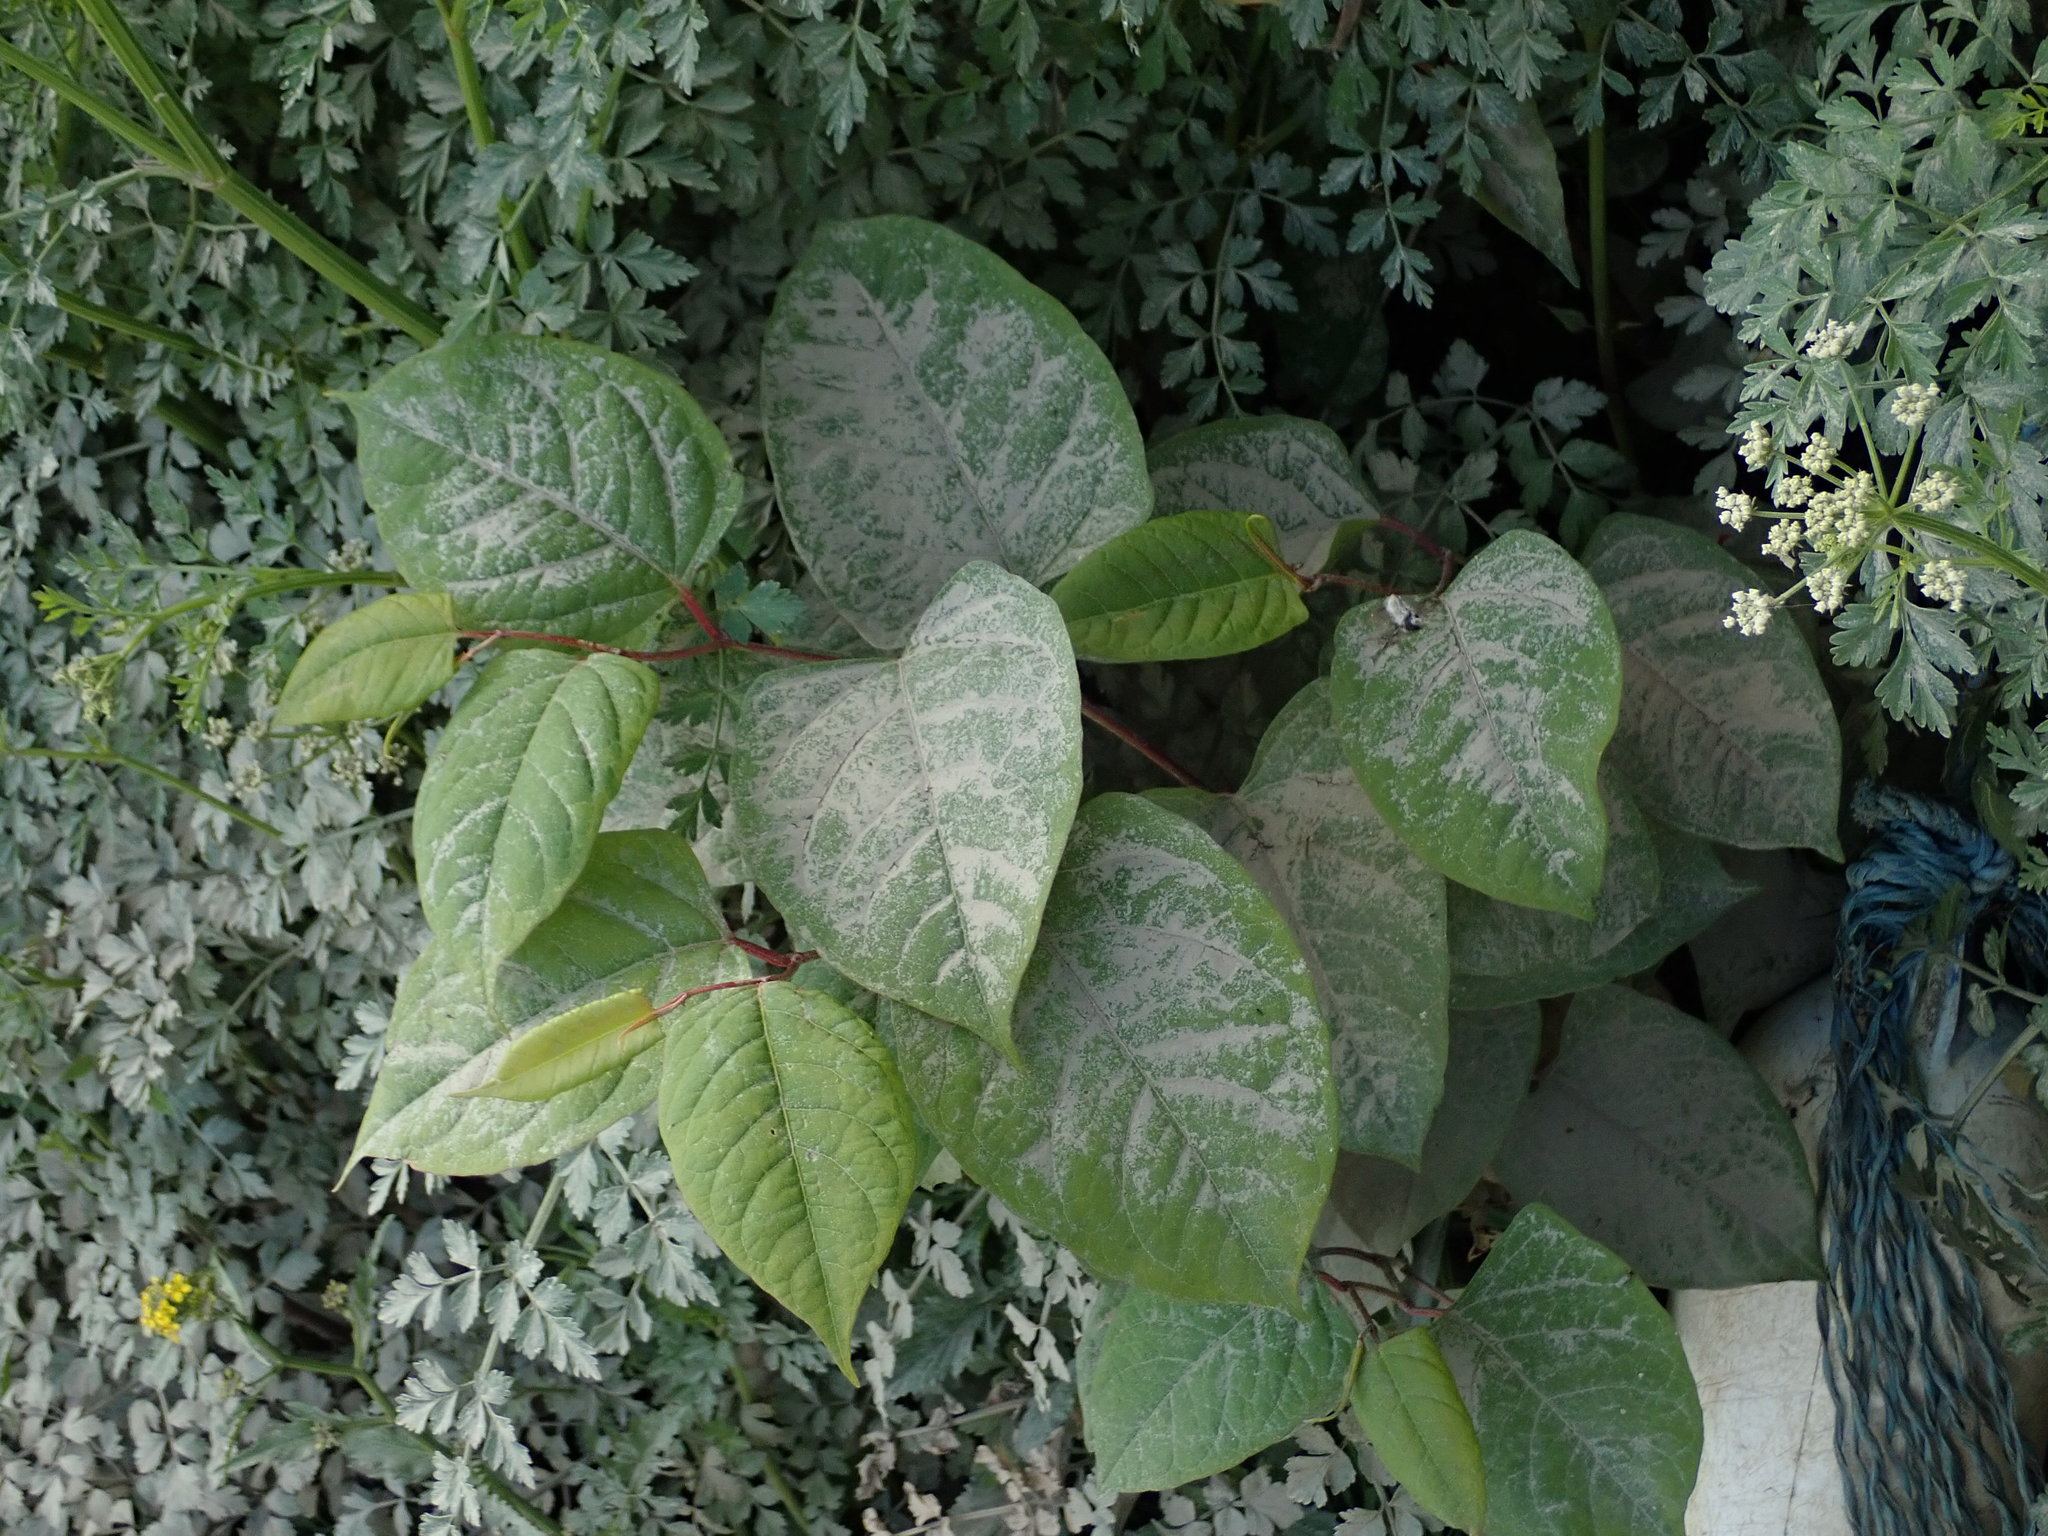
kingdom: Plantae
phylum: Tracheophyta
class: Magnoliopsida
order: Caryophyllales
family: Polygonaceae
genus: Reynoutria
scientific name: Reynoutria japonica
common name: Japanese knotweed
